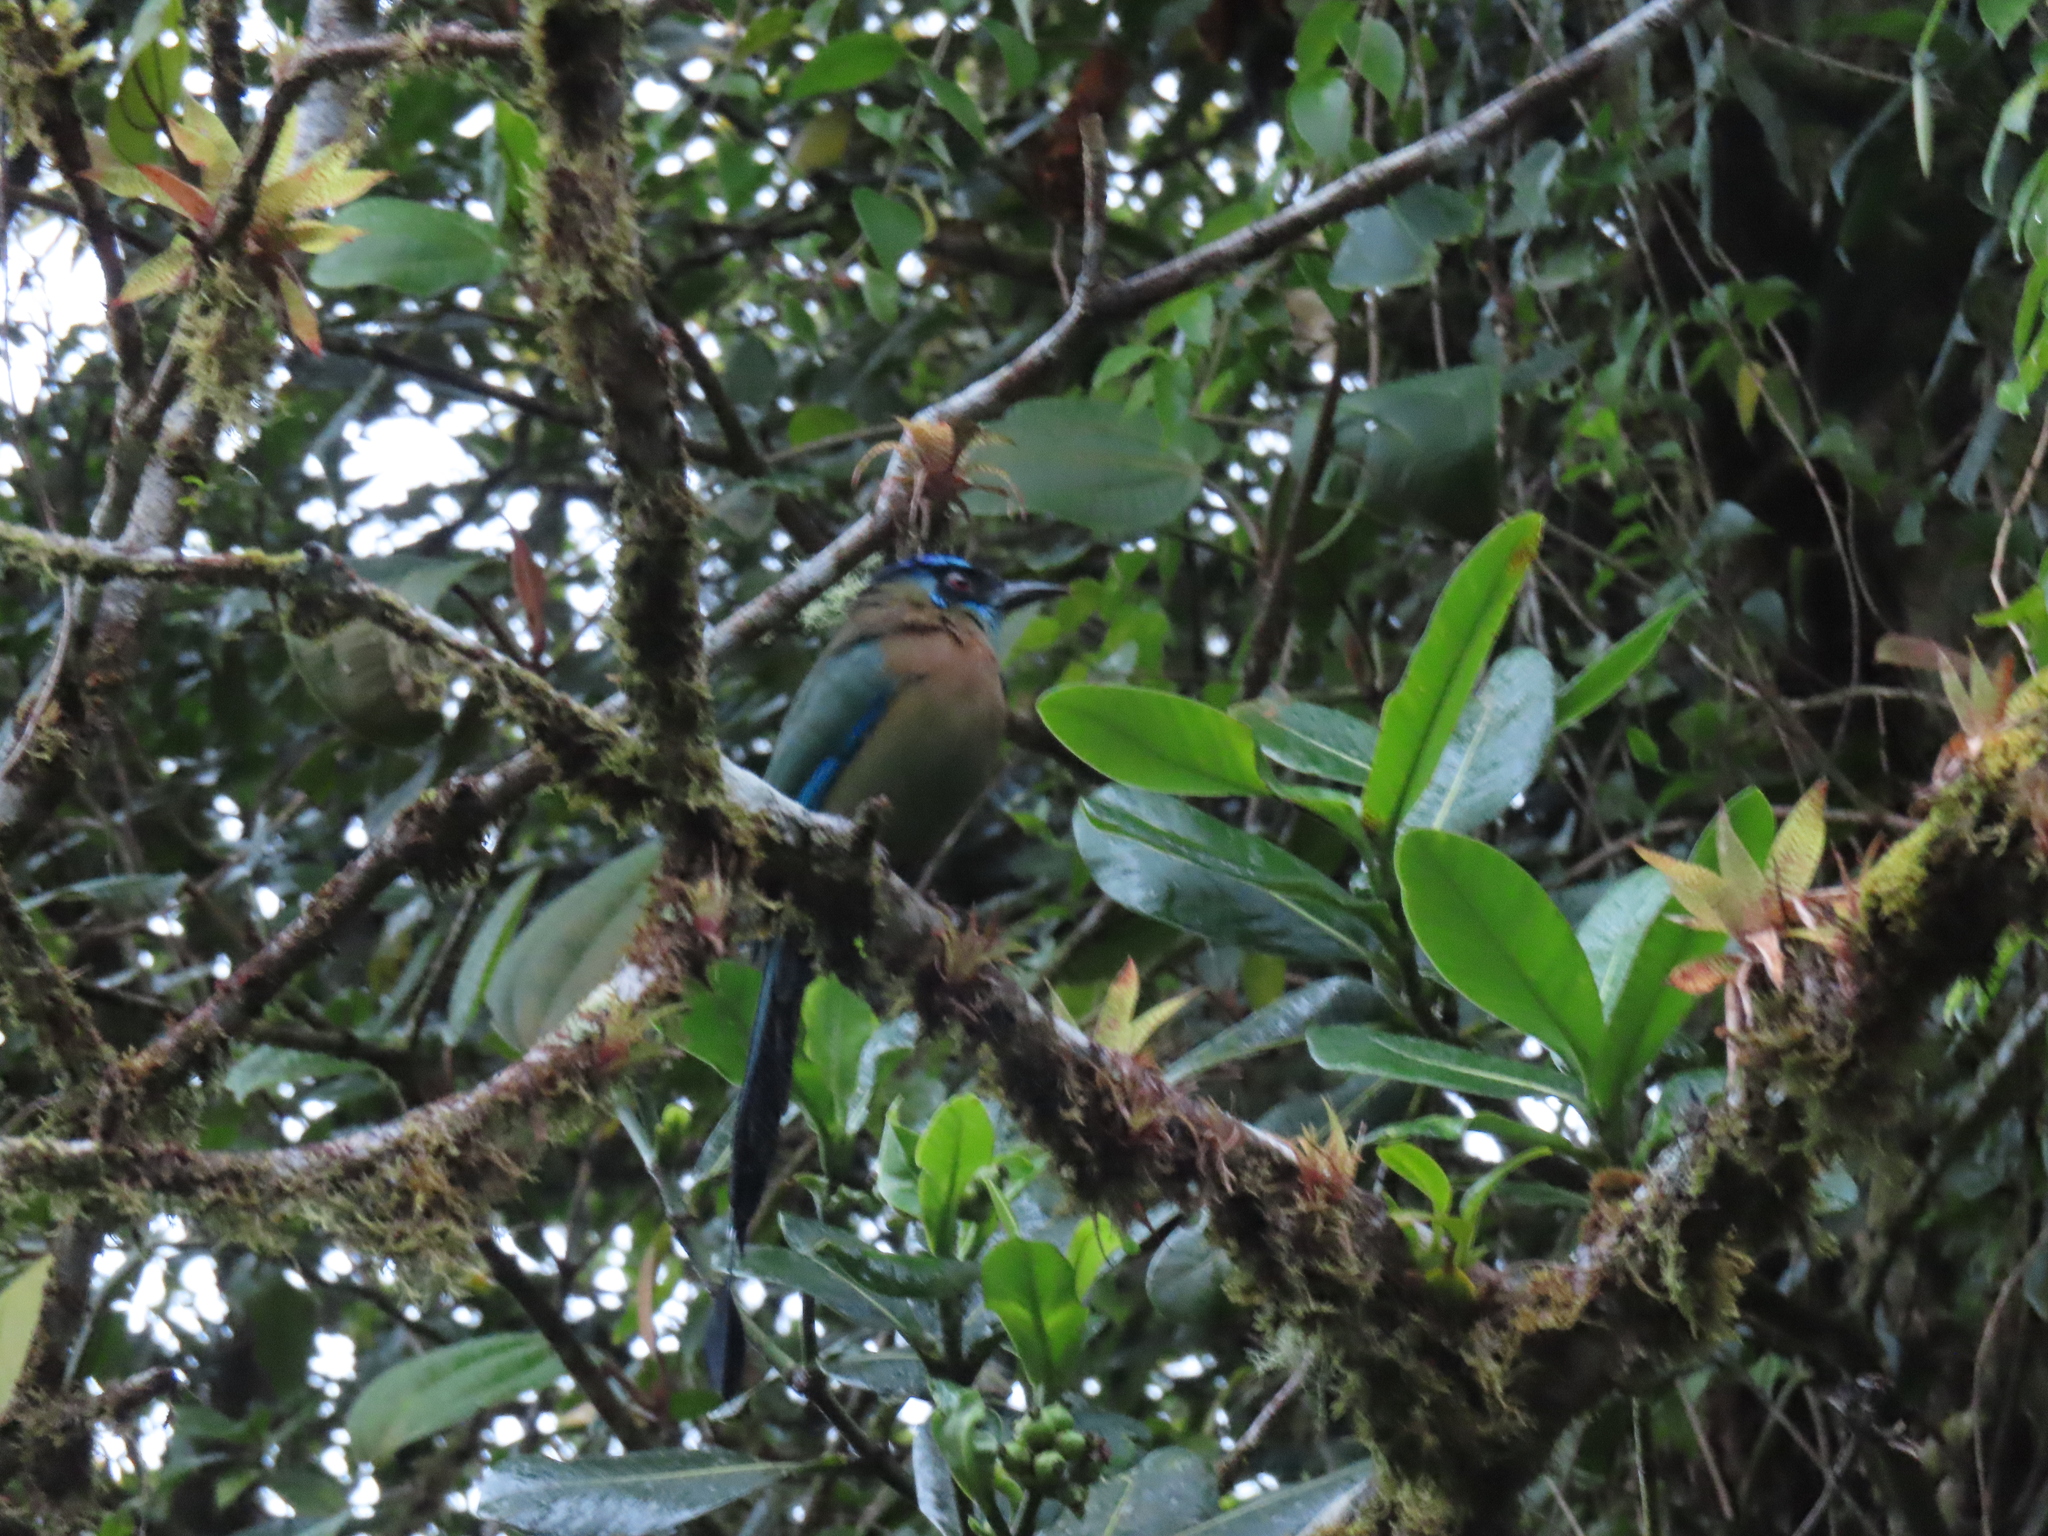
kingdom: Animalia
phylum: Chordata
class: Aves
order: Coraciiformes
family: Momotidae
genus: Momotus
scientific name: Momotus lessonii
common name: Lesson's motmot
